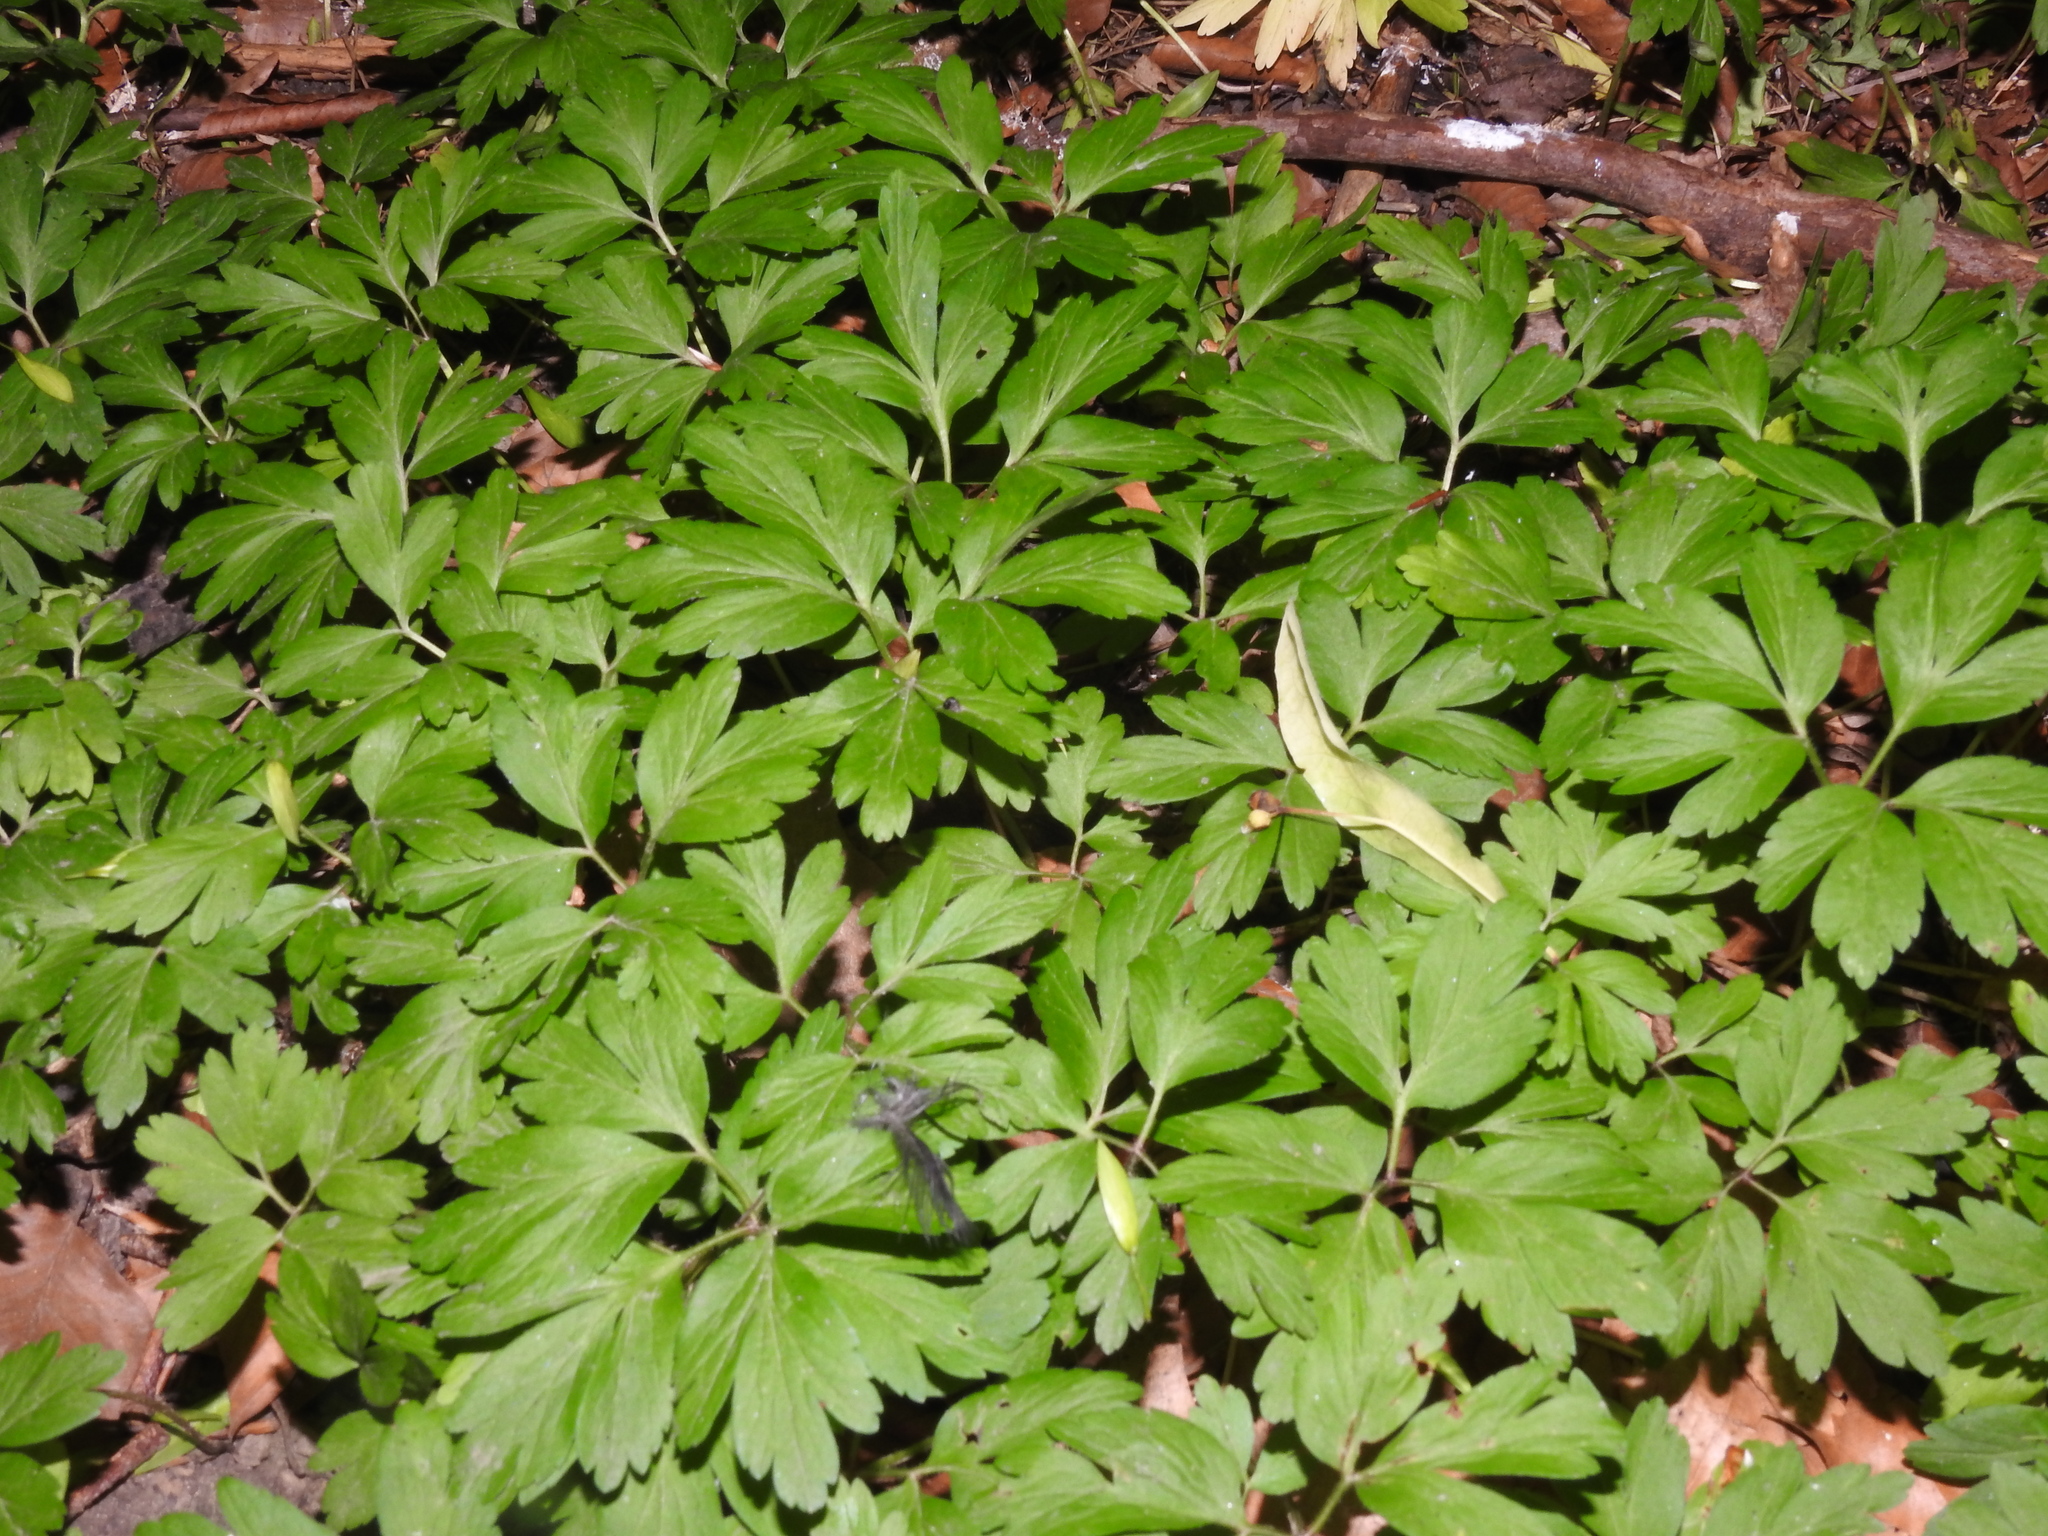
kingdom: Plantae
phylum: Tracheophyta
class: Magnoliopsida
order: Ranunculales
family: Ranunculaceae
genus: Anemone
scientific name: Anemone nemorosa
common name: Wood anemone
